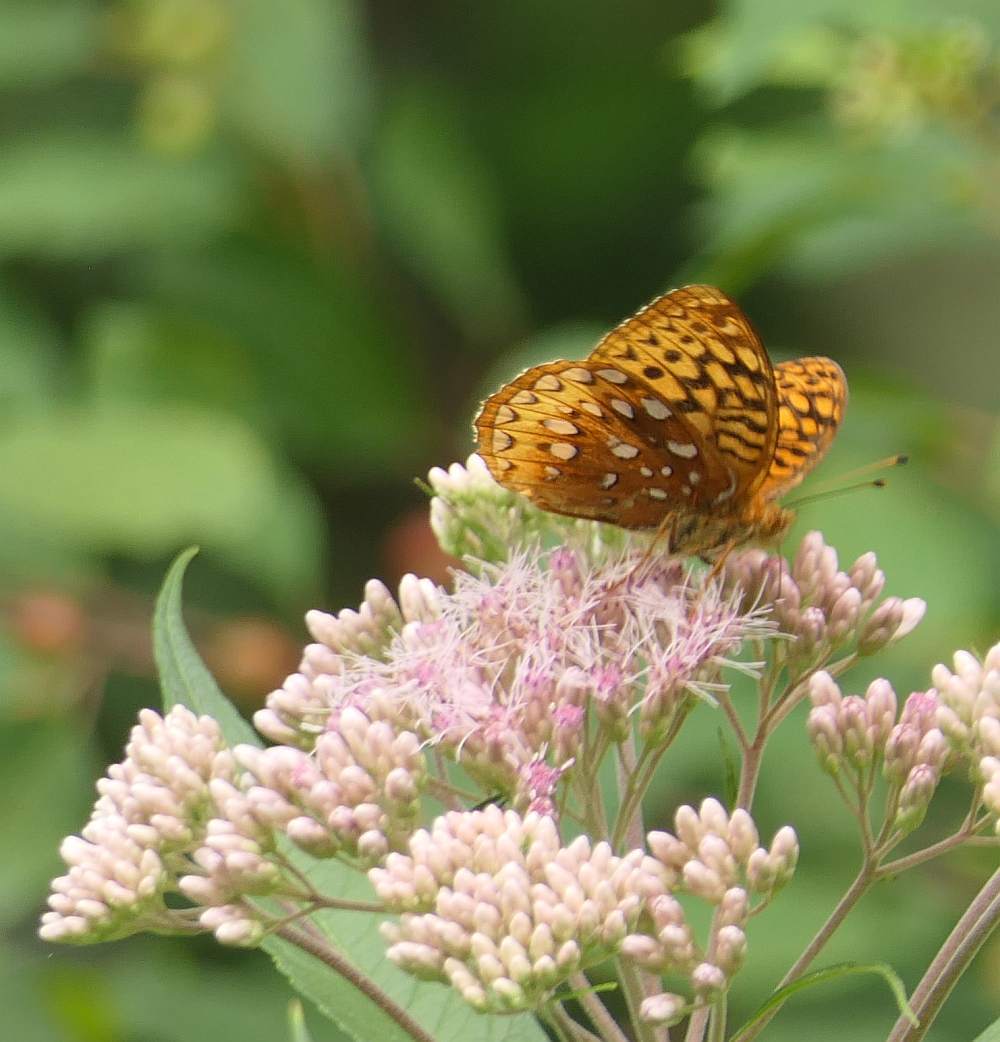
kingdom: Animalia
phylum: Arthropoda
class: Insecta
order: Lepidoptera
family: Nymphalidae
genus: Speyeria
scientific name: Speyeria cybele
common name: Great spangled fritillary
